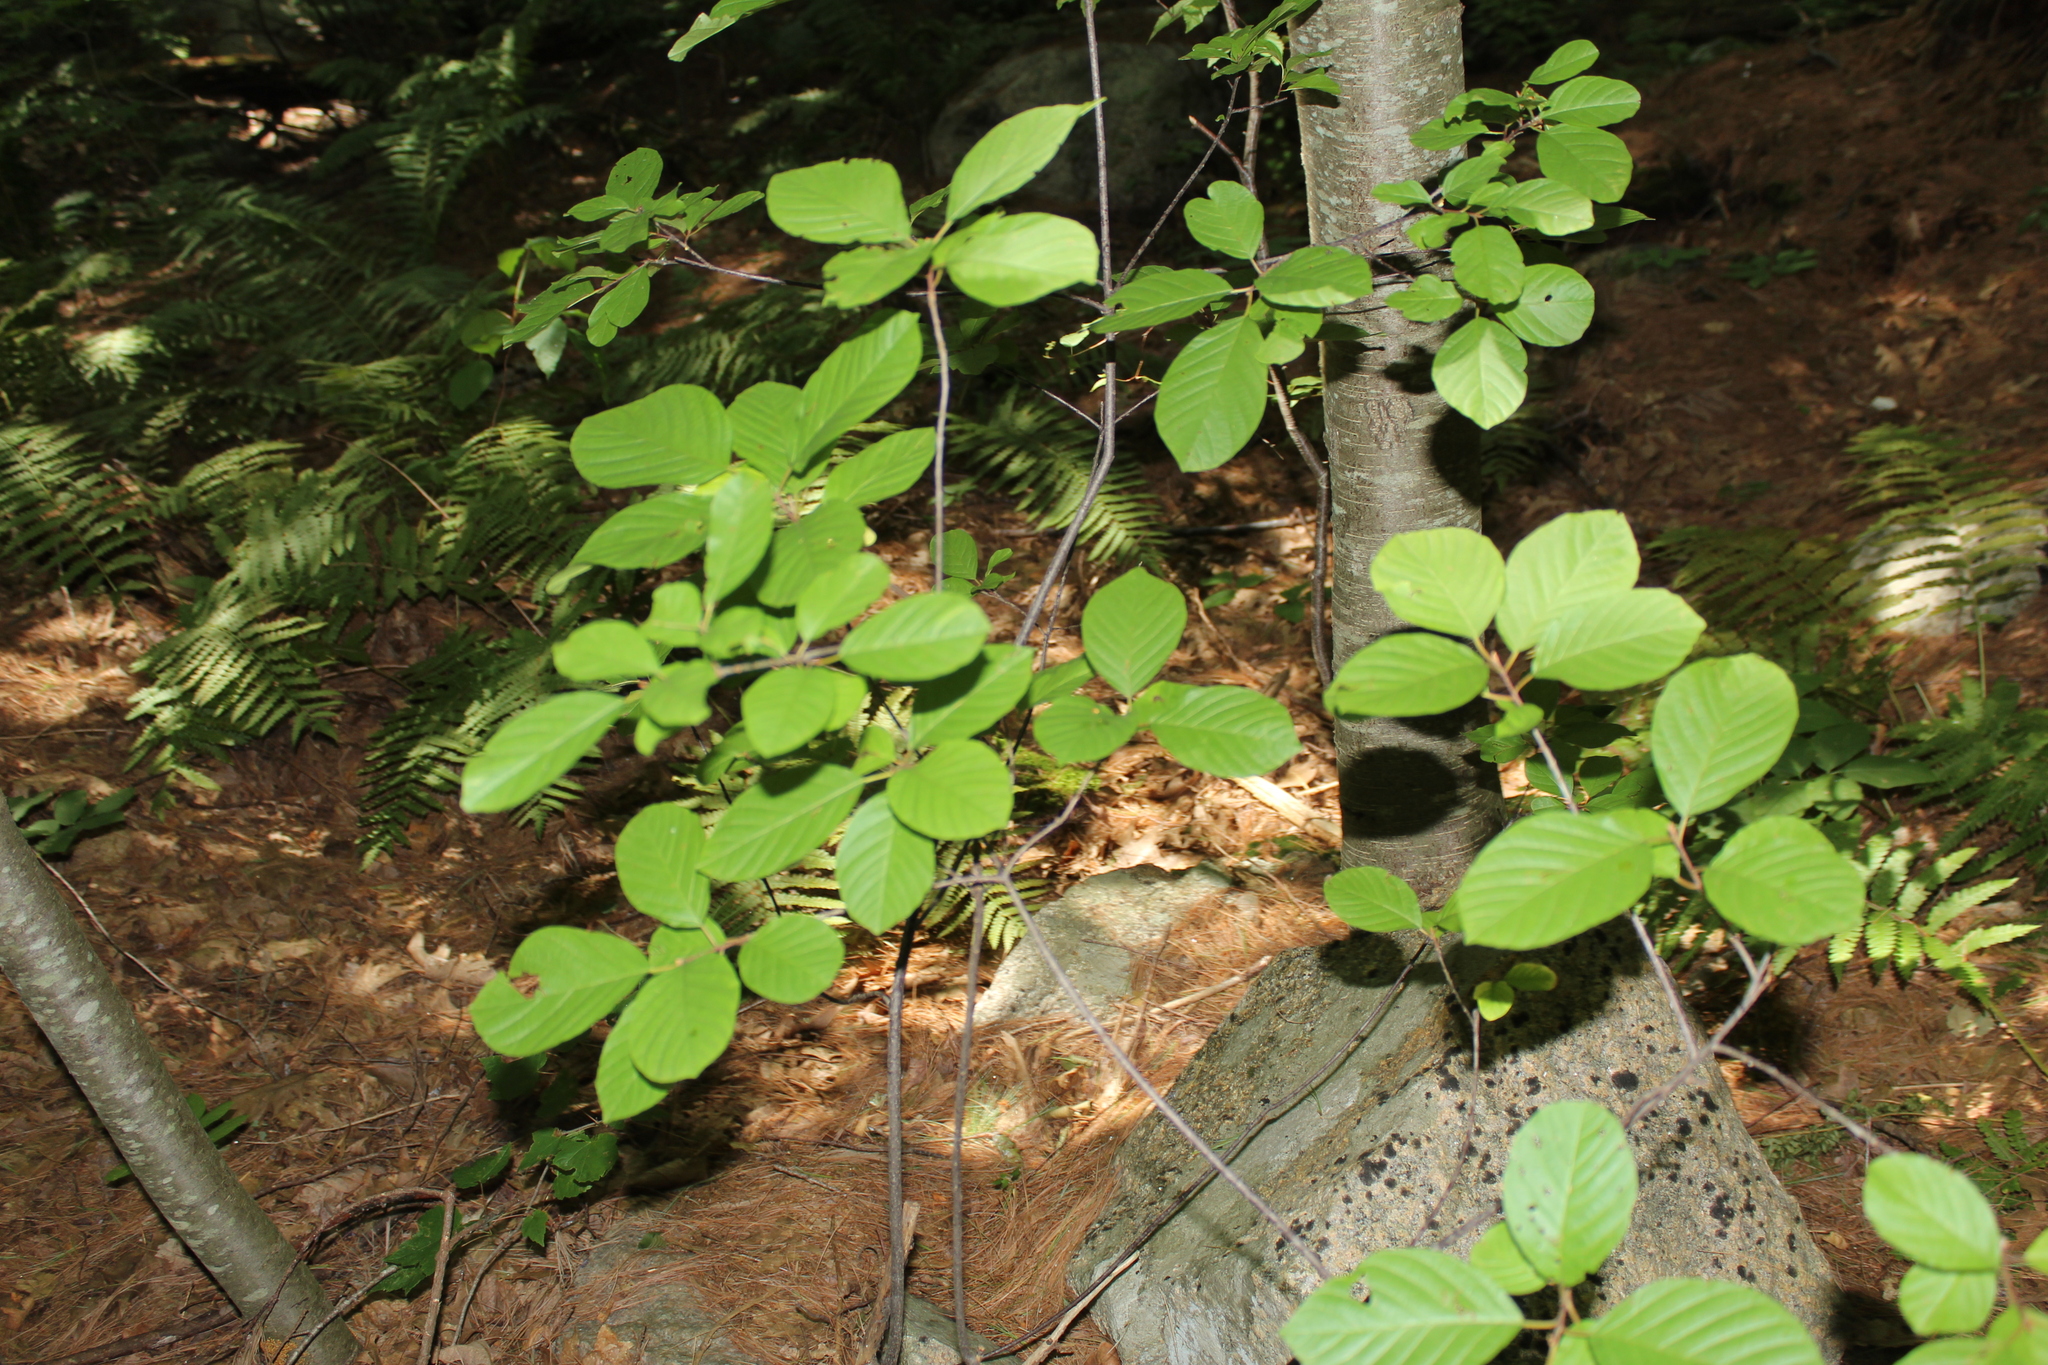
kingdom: Plantae
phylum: Tracheophyta
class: Magnoliopsida
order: Rosales
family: Rhamnaceae
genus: Frangula
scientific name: Frangula alnus
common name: Alder buckthorn
